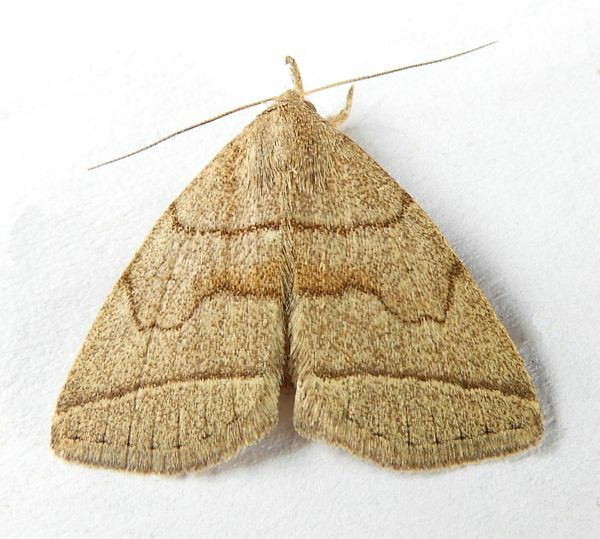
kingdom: Animalia
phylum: Arthropoda
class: Insecta
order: Lepidoptera
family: Erebidae
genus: Zanclognatha
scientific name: Zanclognatha cruralis
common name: Early fan-foot
